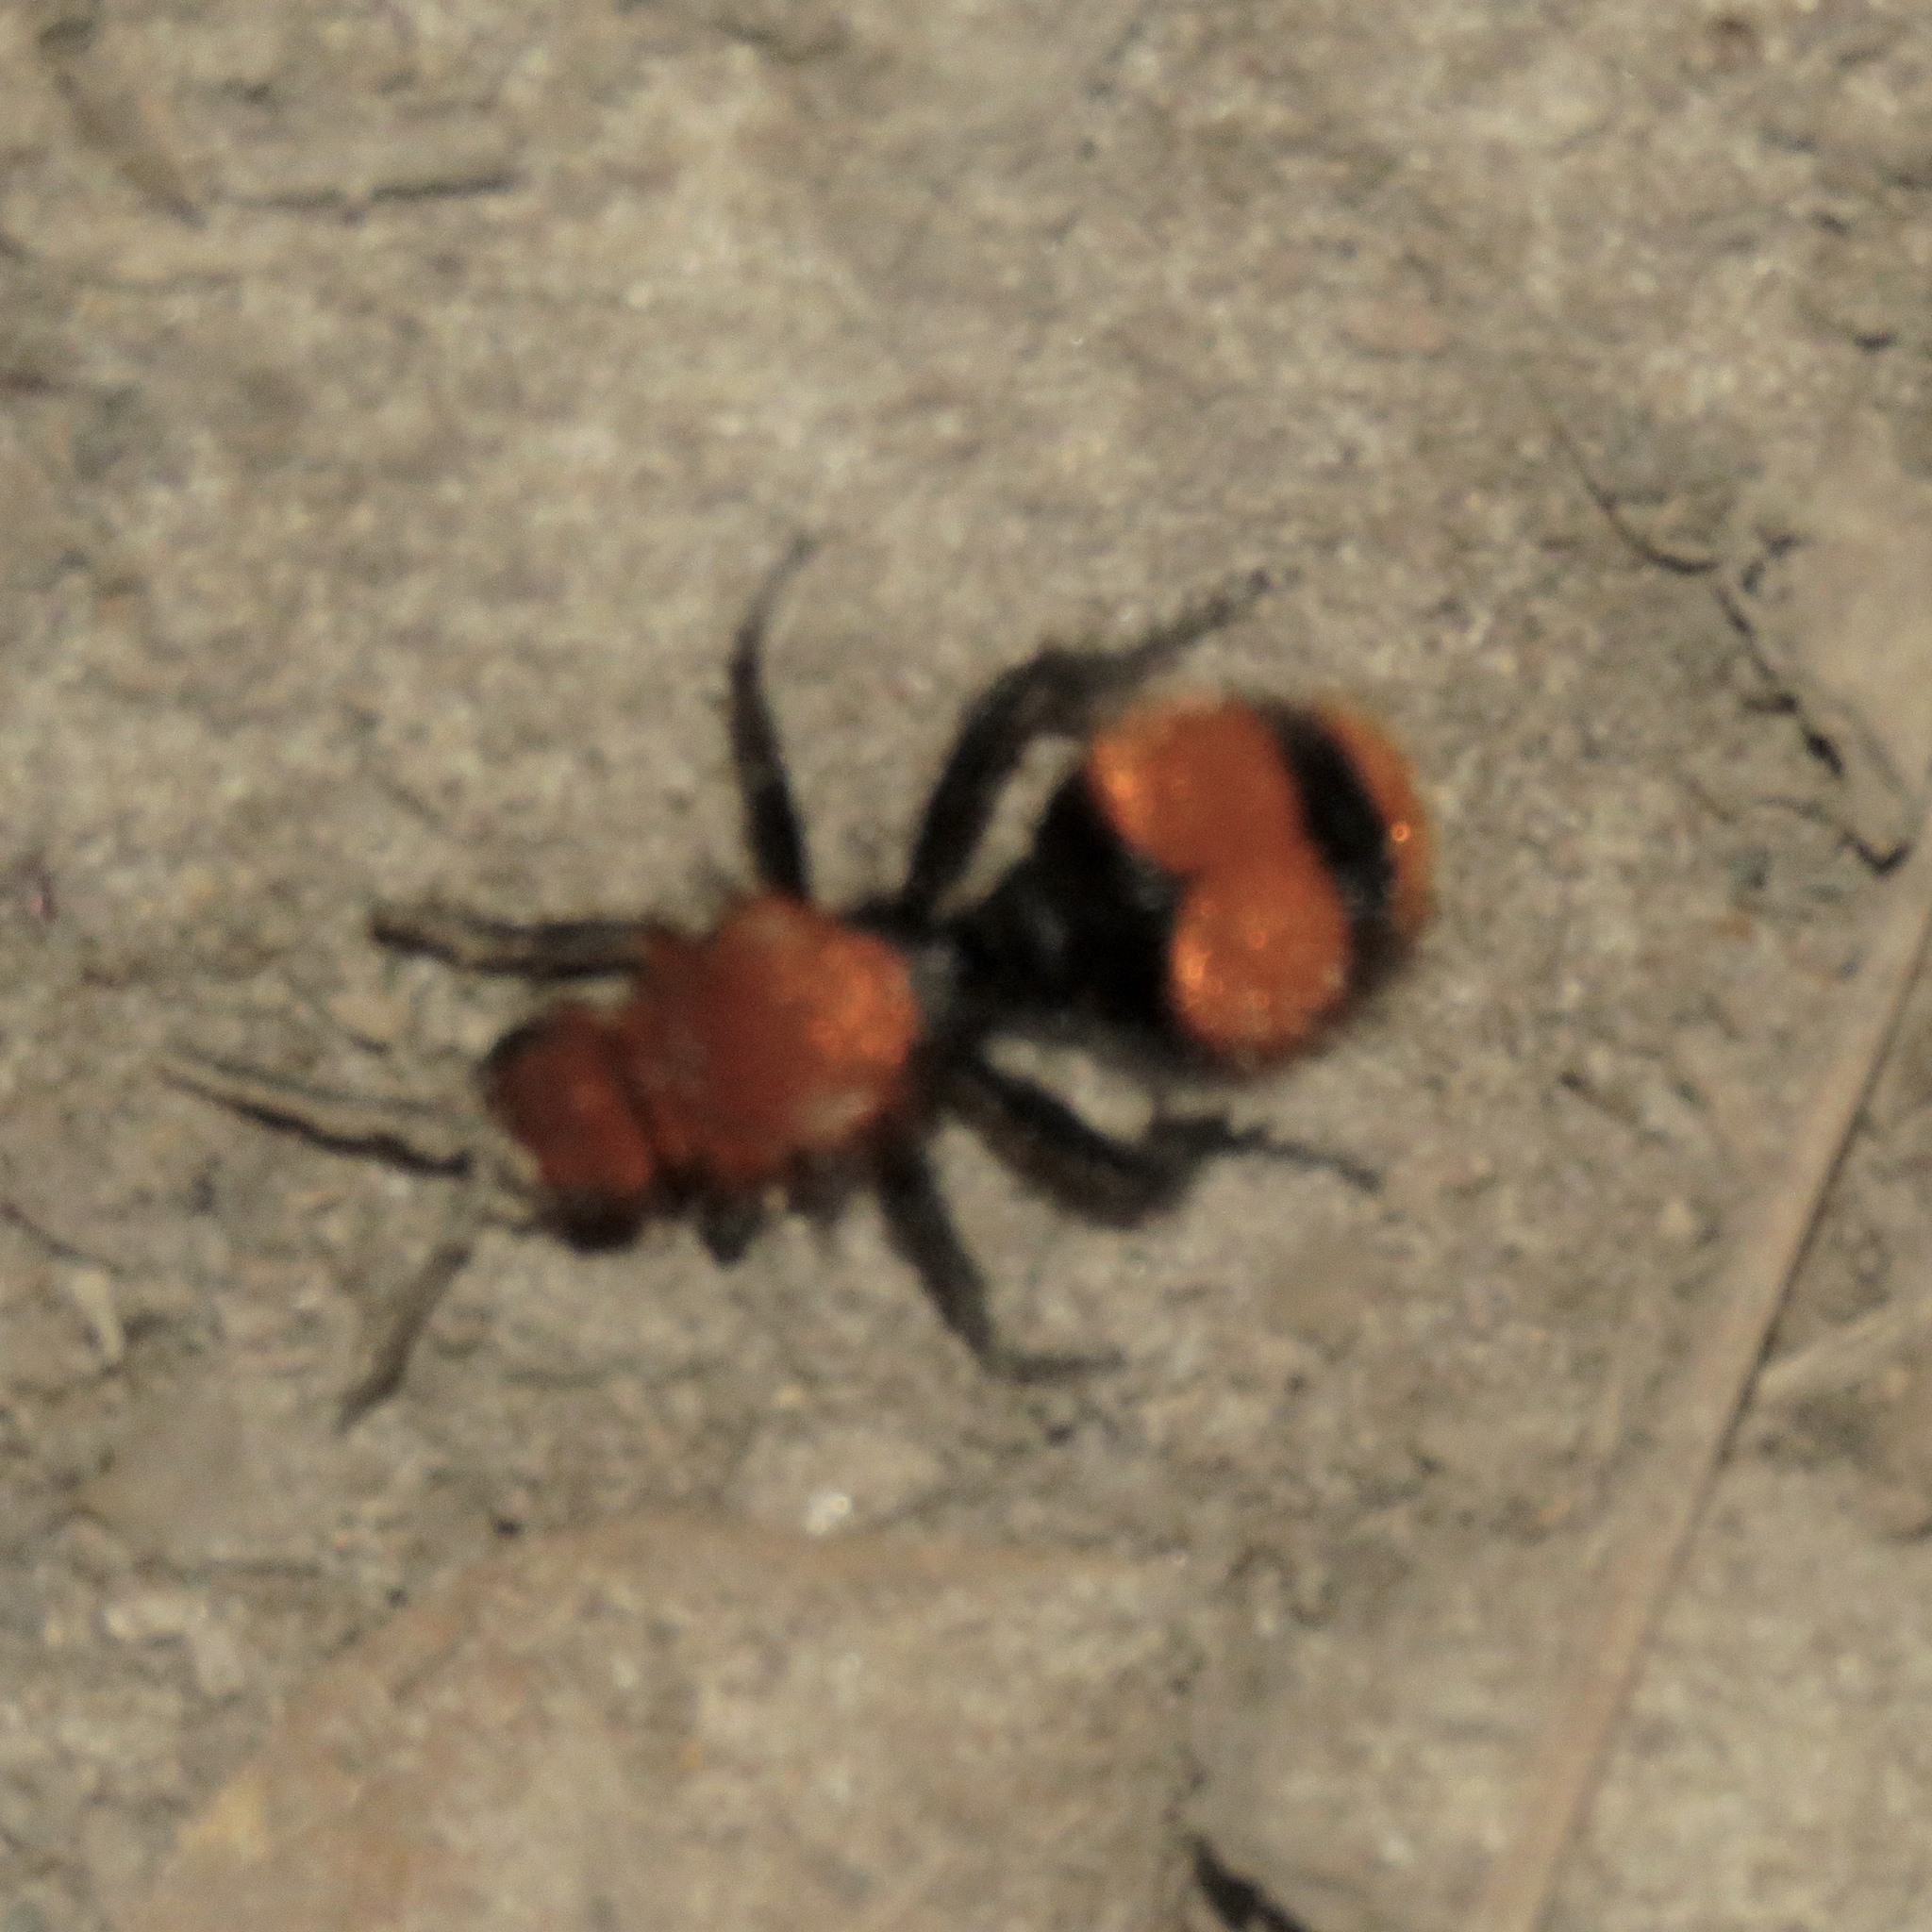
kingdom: Animalia
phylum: Arthropoda
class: Insecta
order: Hymenoptera
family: Mutillidae
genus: Dasymutilla
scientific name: Dasymutilla occidentalis
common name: Common eastern velvet ant
